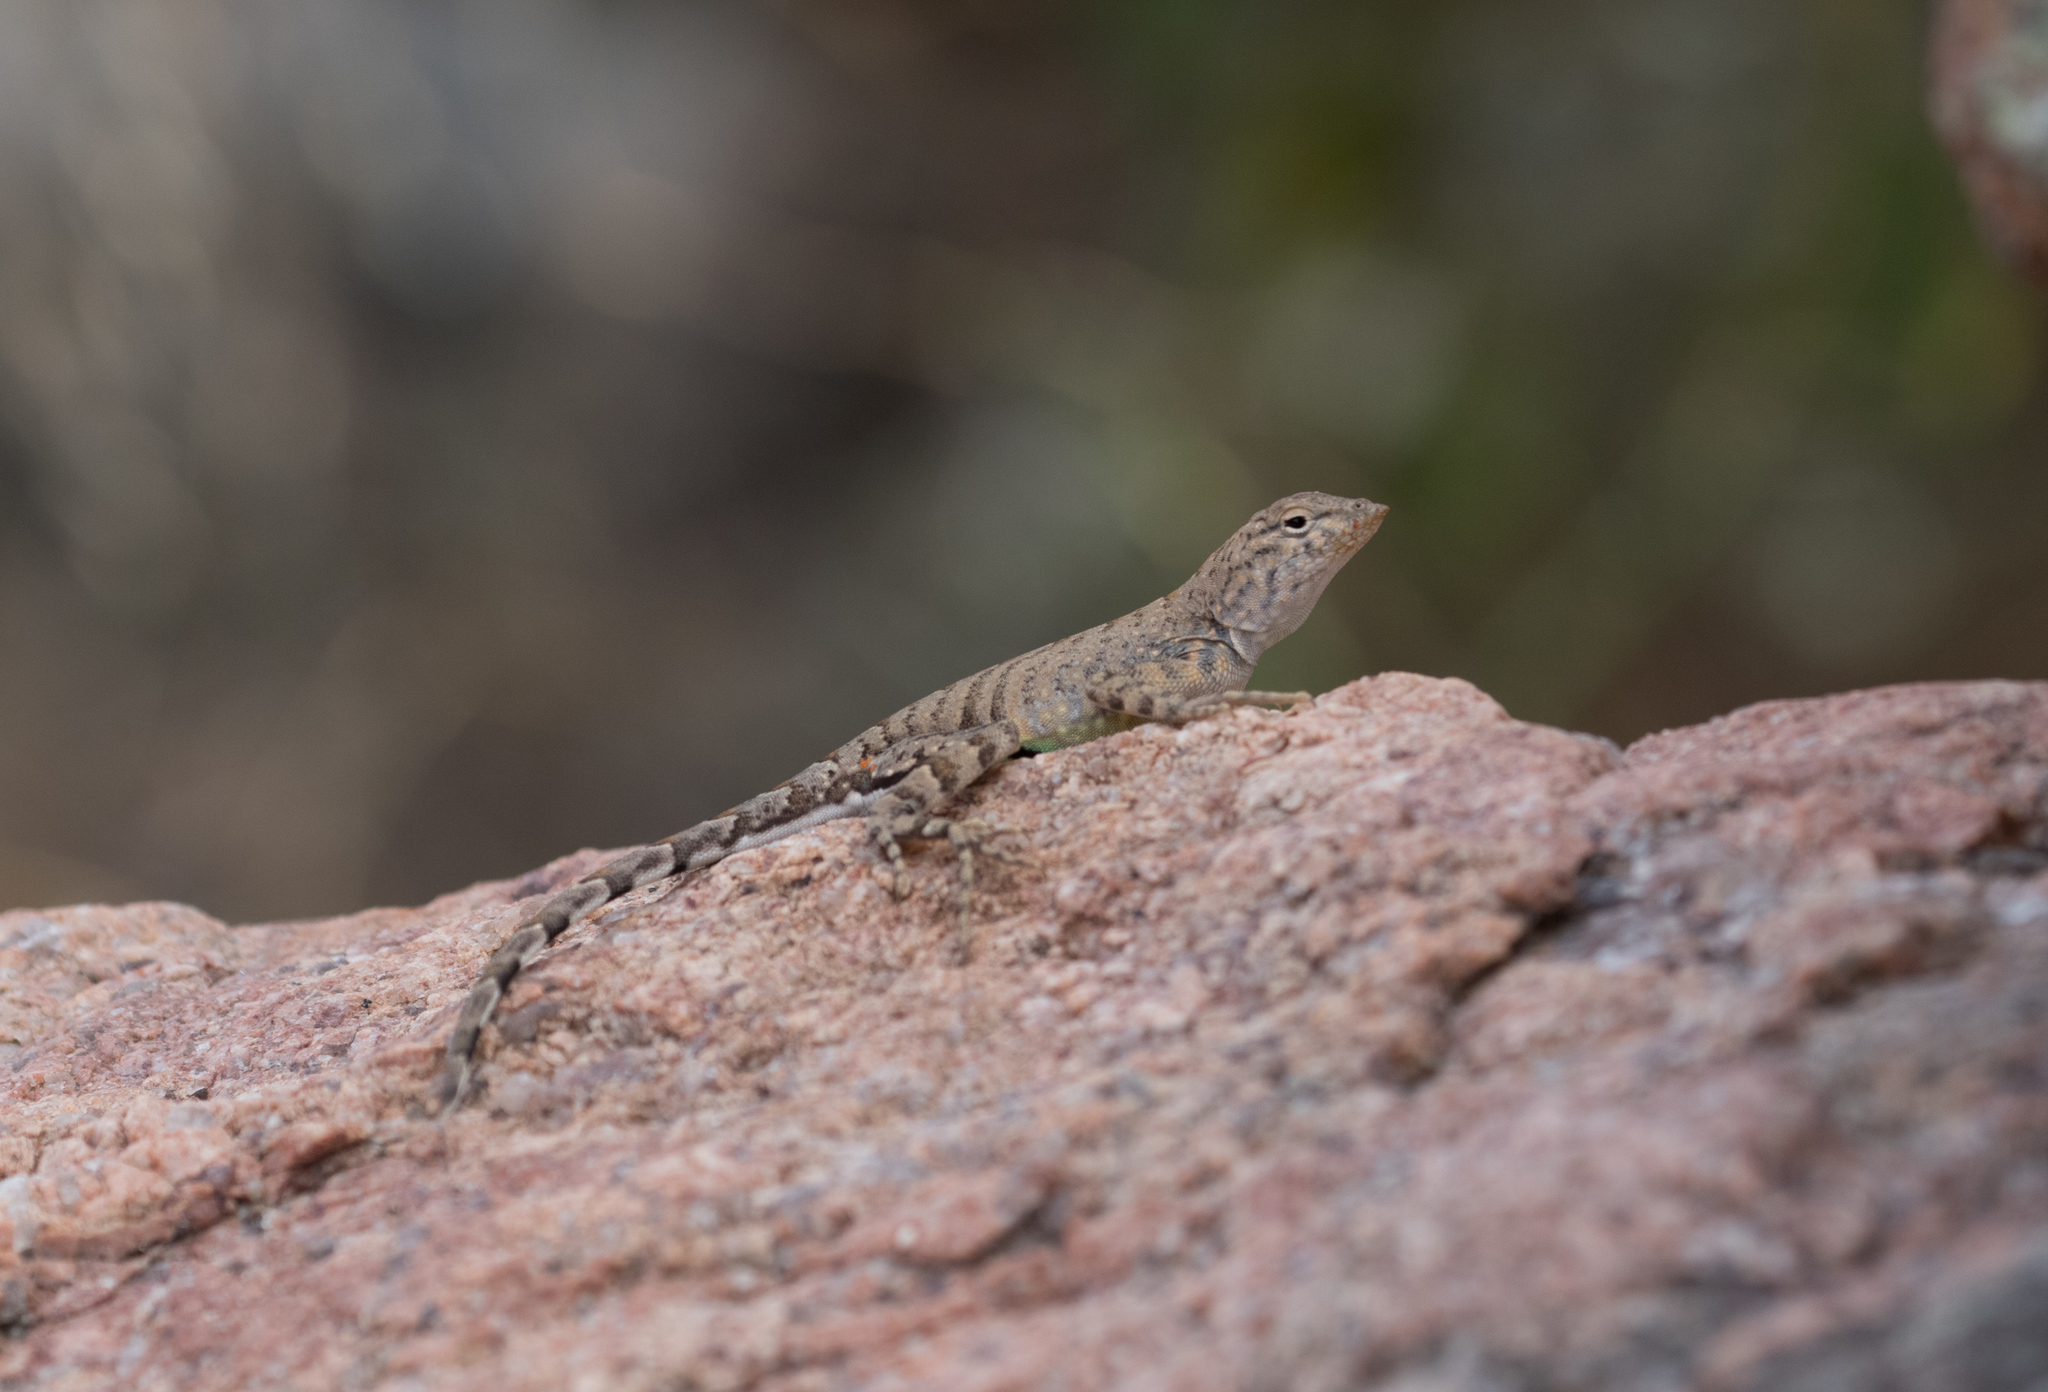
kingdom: Animalia
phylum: Chordata
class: Squamata
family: Phrynosomatidae
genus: Cophosaurus
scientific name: Cophosaurus texanus
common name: Greater earless lizard
